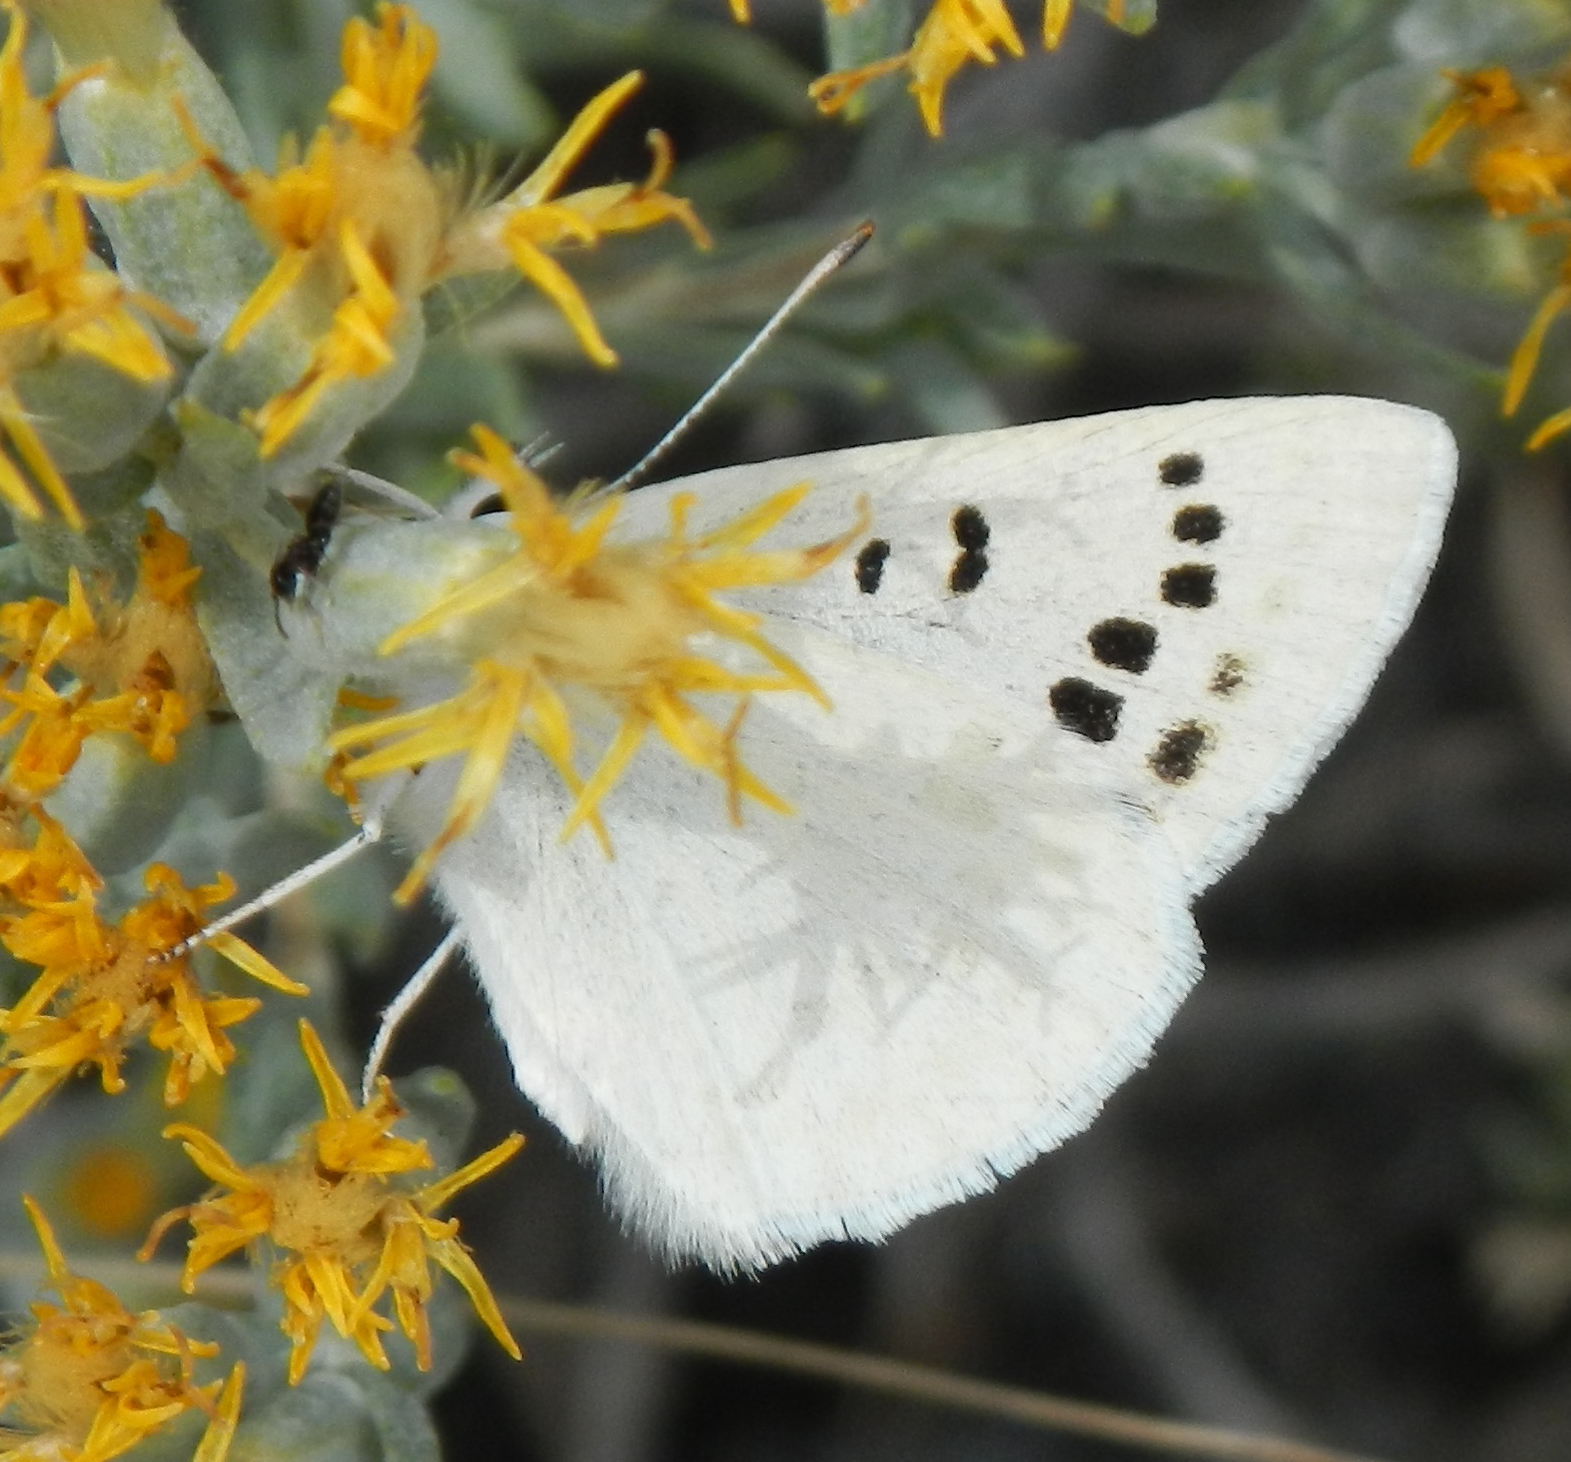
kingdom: Animalia
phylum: Arthropoda
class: Insecta
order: Lepidoptera
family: Lycaenidae
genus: Tharsalea
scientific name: Tharsalea heteronea
